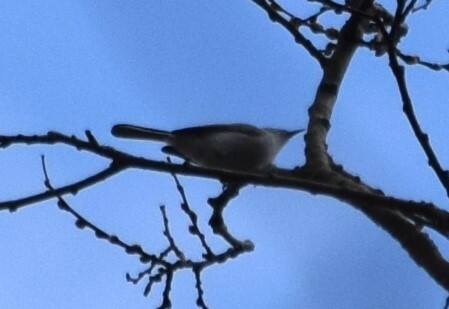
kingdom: Animalia
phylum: Chordata
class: Aves
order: Passeriformes
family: Polioptilidae
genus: Polioptila
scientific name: Polioptila caerulea
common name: Blue-gray gnatcatcher
